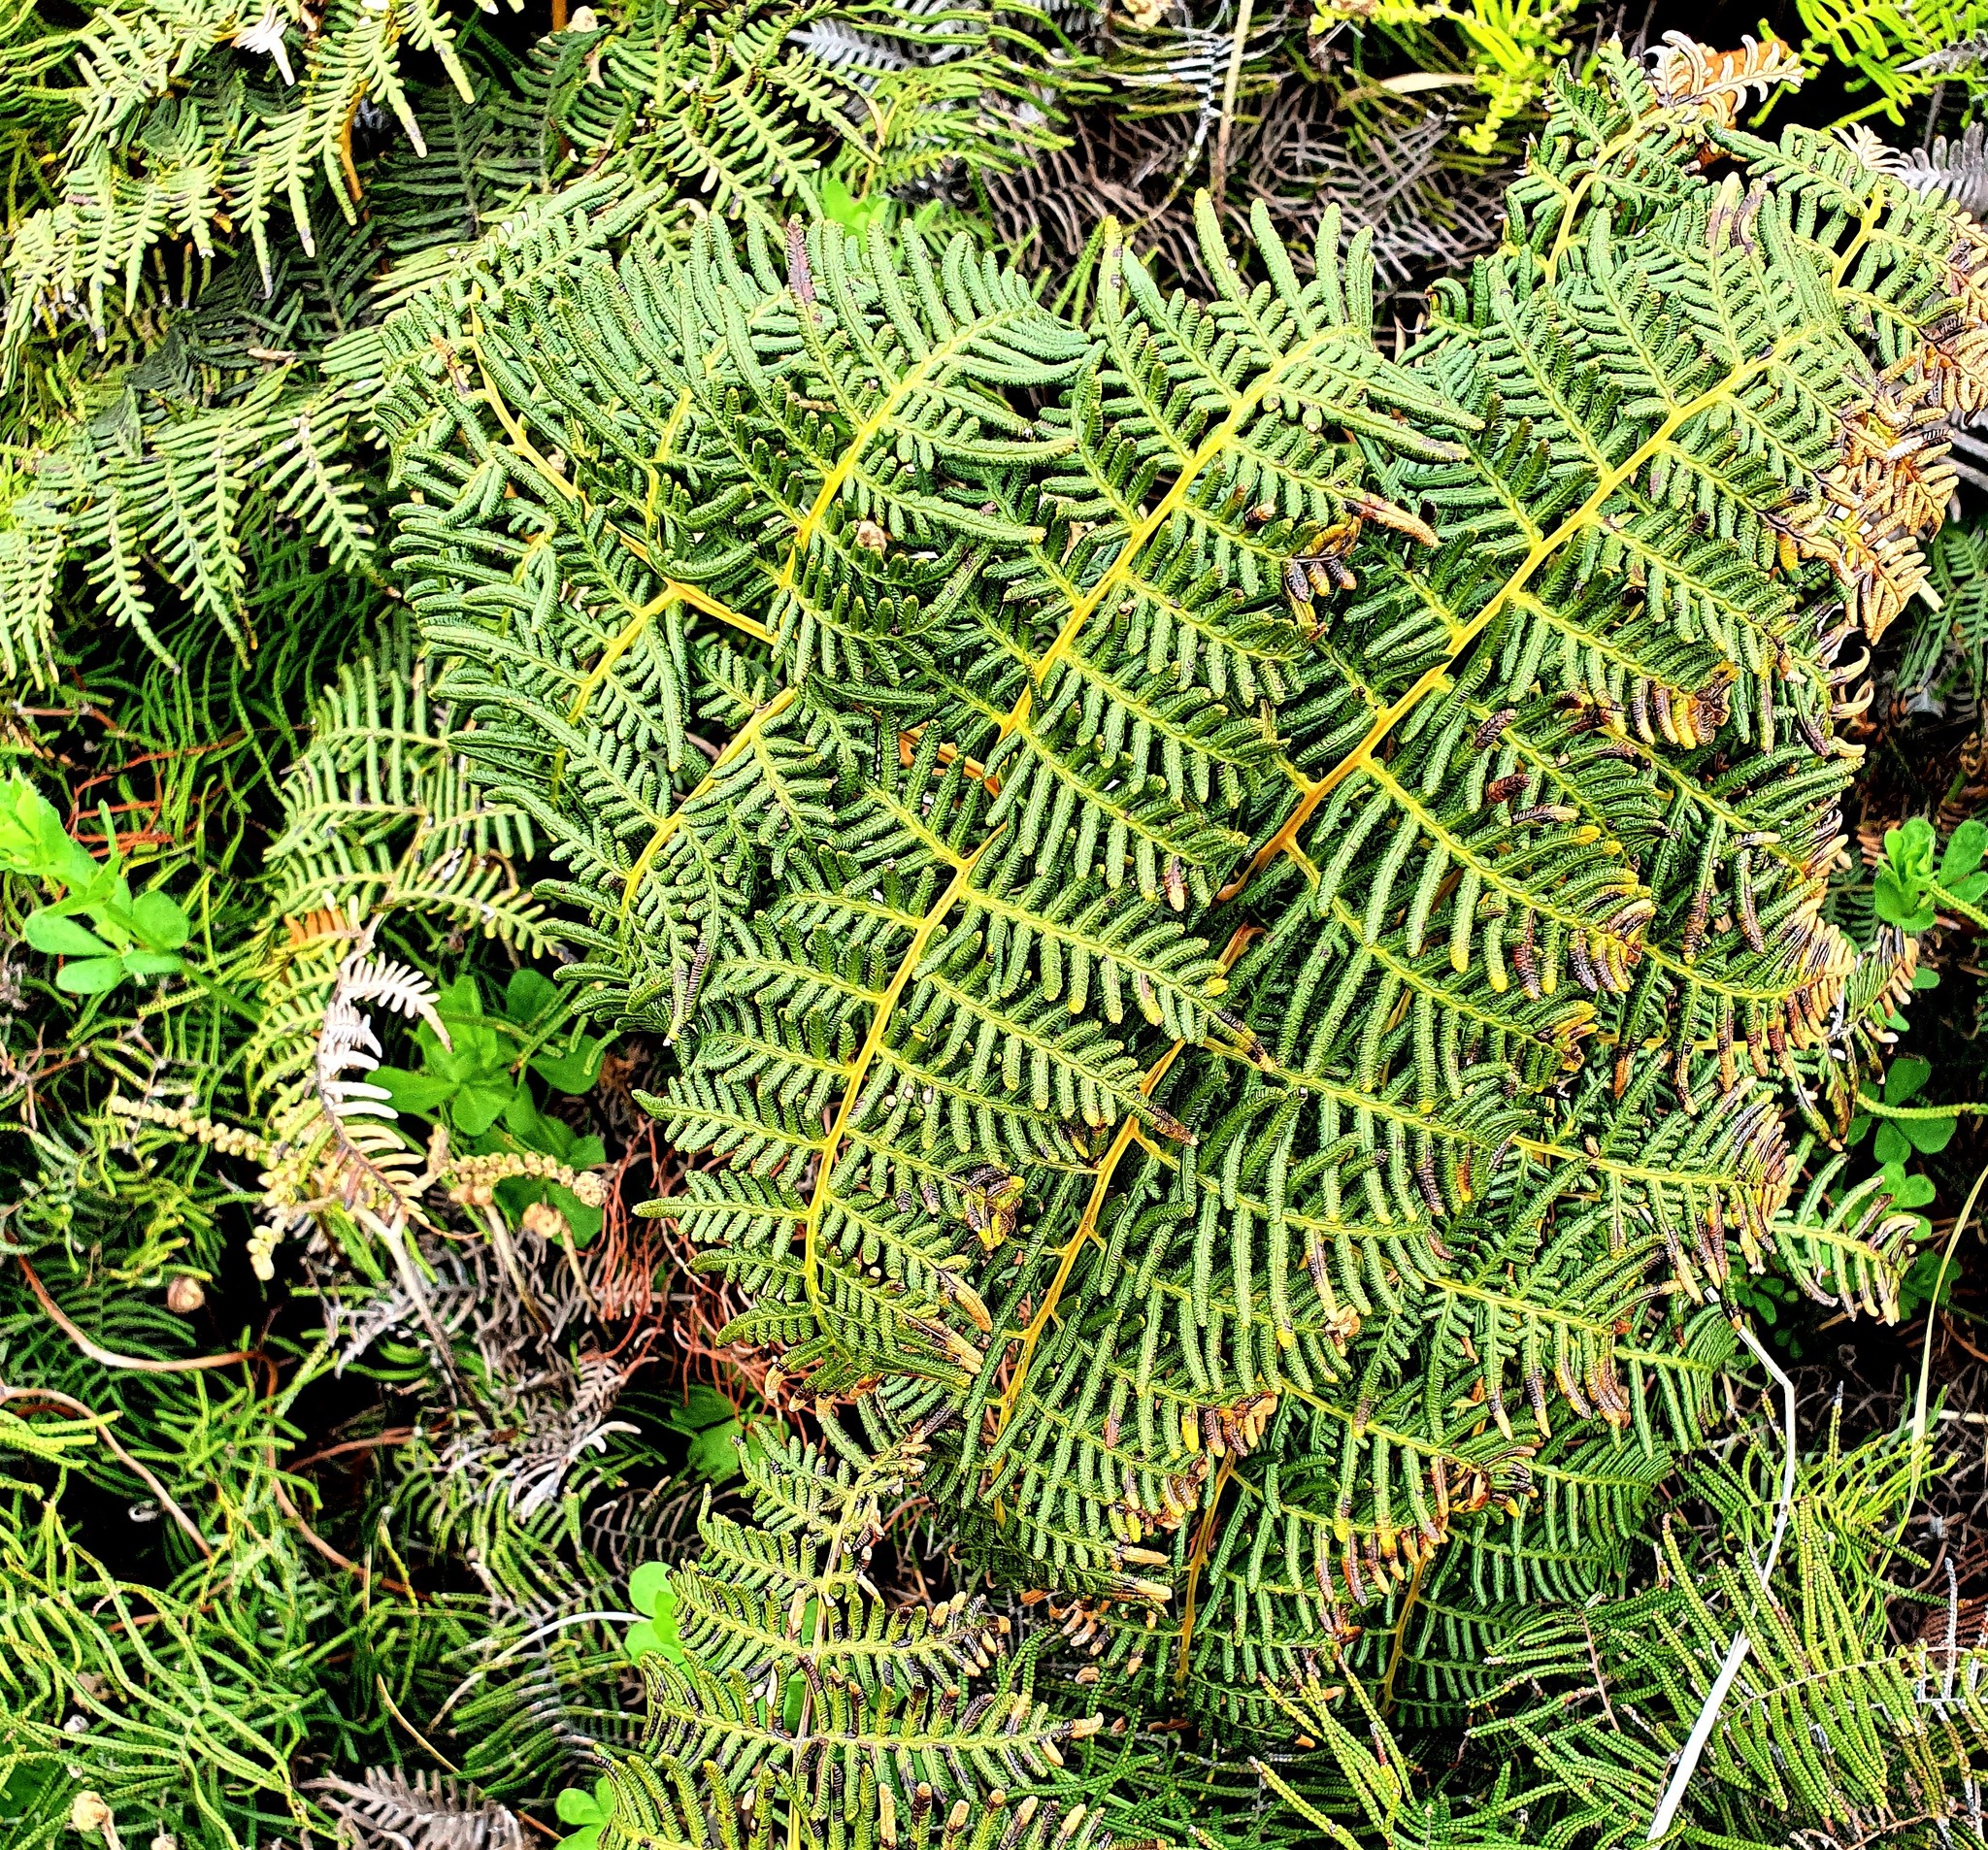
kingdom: Plantae
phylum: Tracheophyta
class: Polypodiopsida
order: Polypodiales
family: Dennstaedtiaceae
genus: Pteridium
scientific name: Pteridium esculentum
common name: Bracken fern
